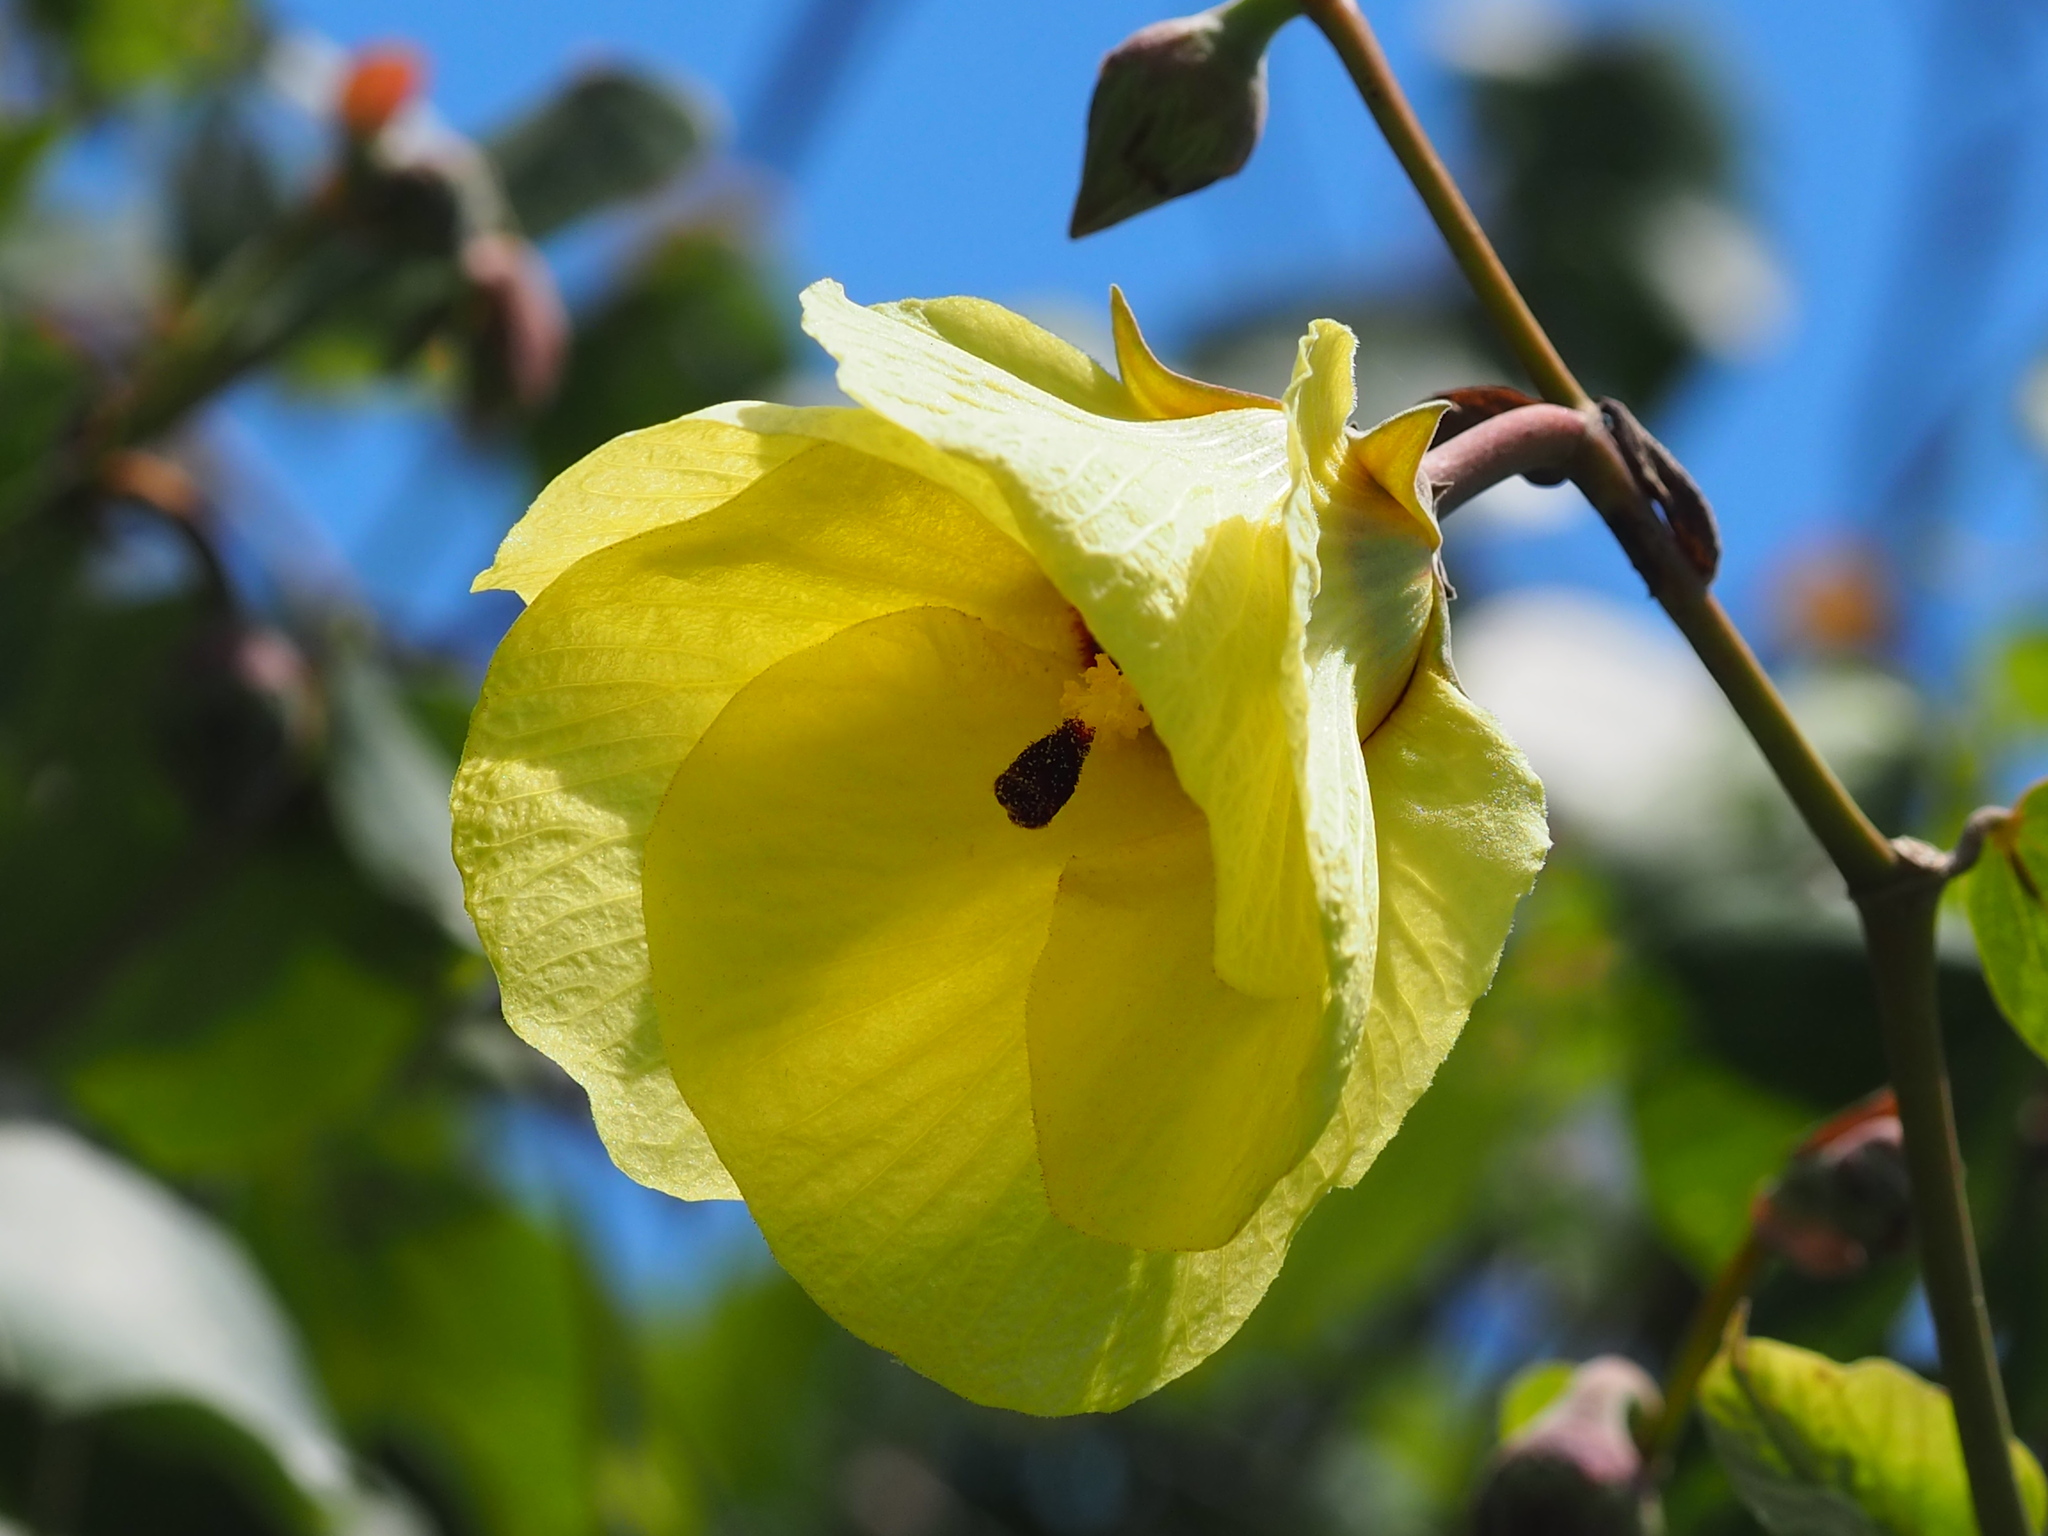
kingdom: Plantae
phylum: Tracheophyta
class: Magnoliopsida
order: Malvales
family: Malvaceae
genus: Talipariti
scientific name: Talipariti tiliaceum
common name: Sea hibiscus
